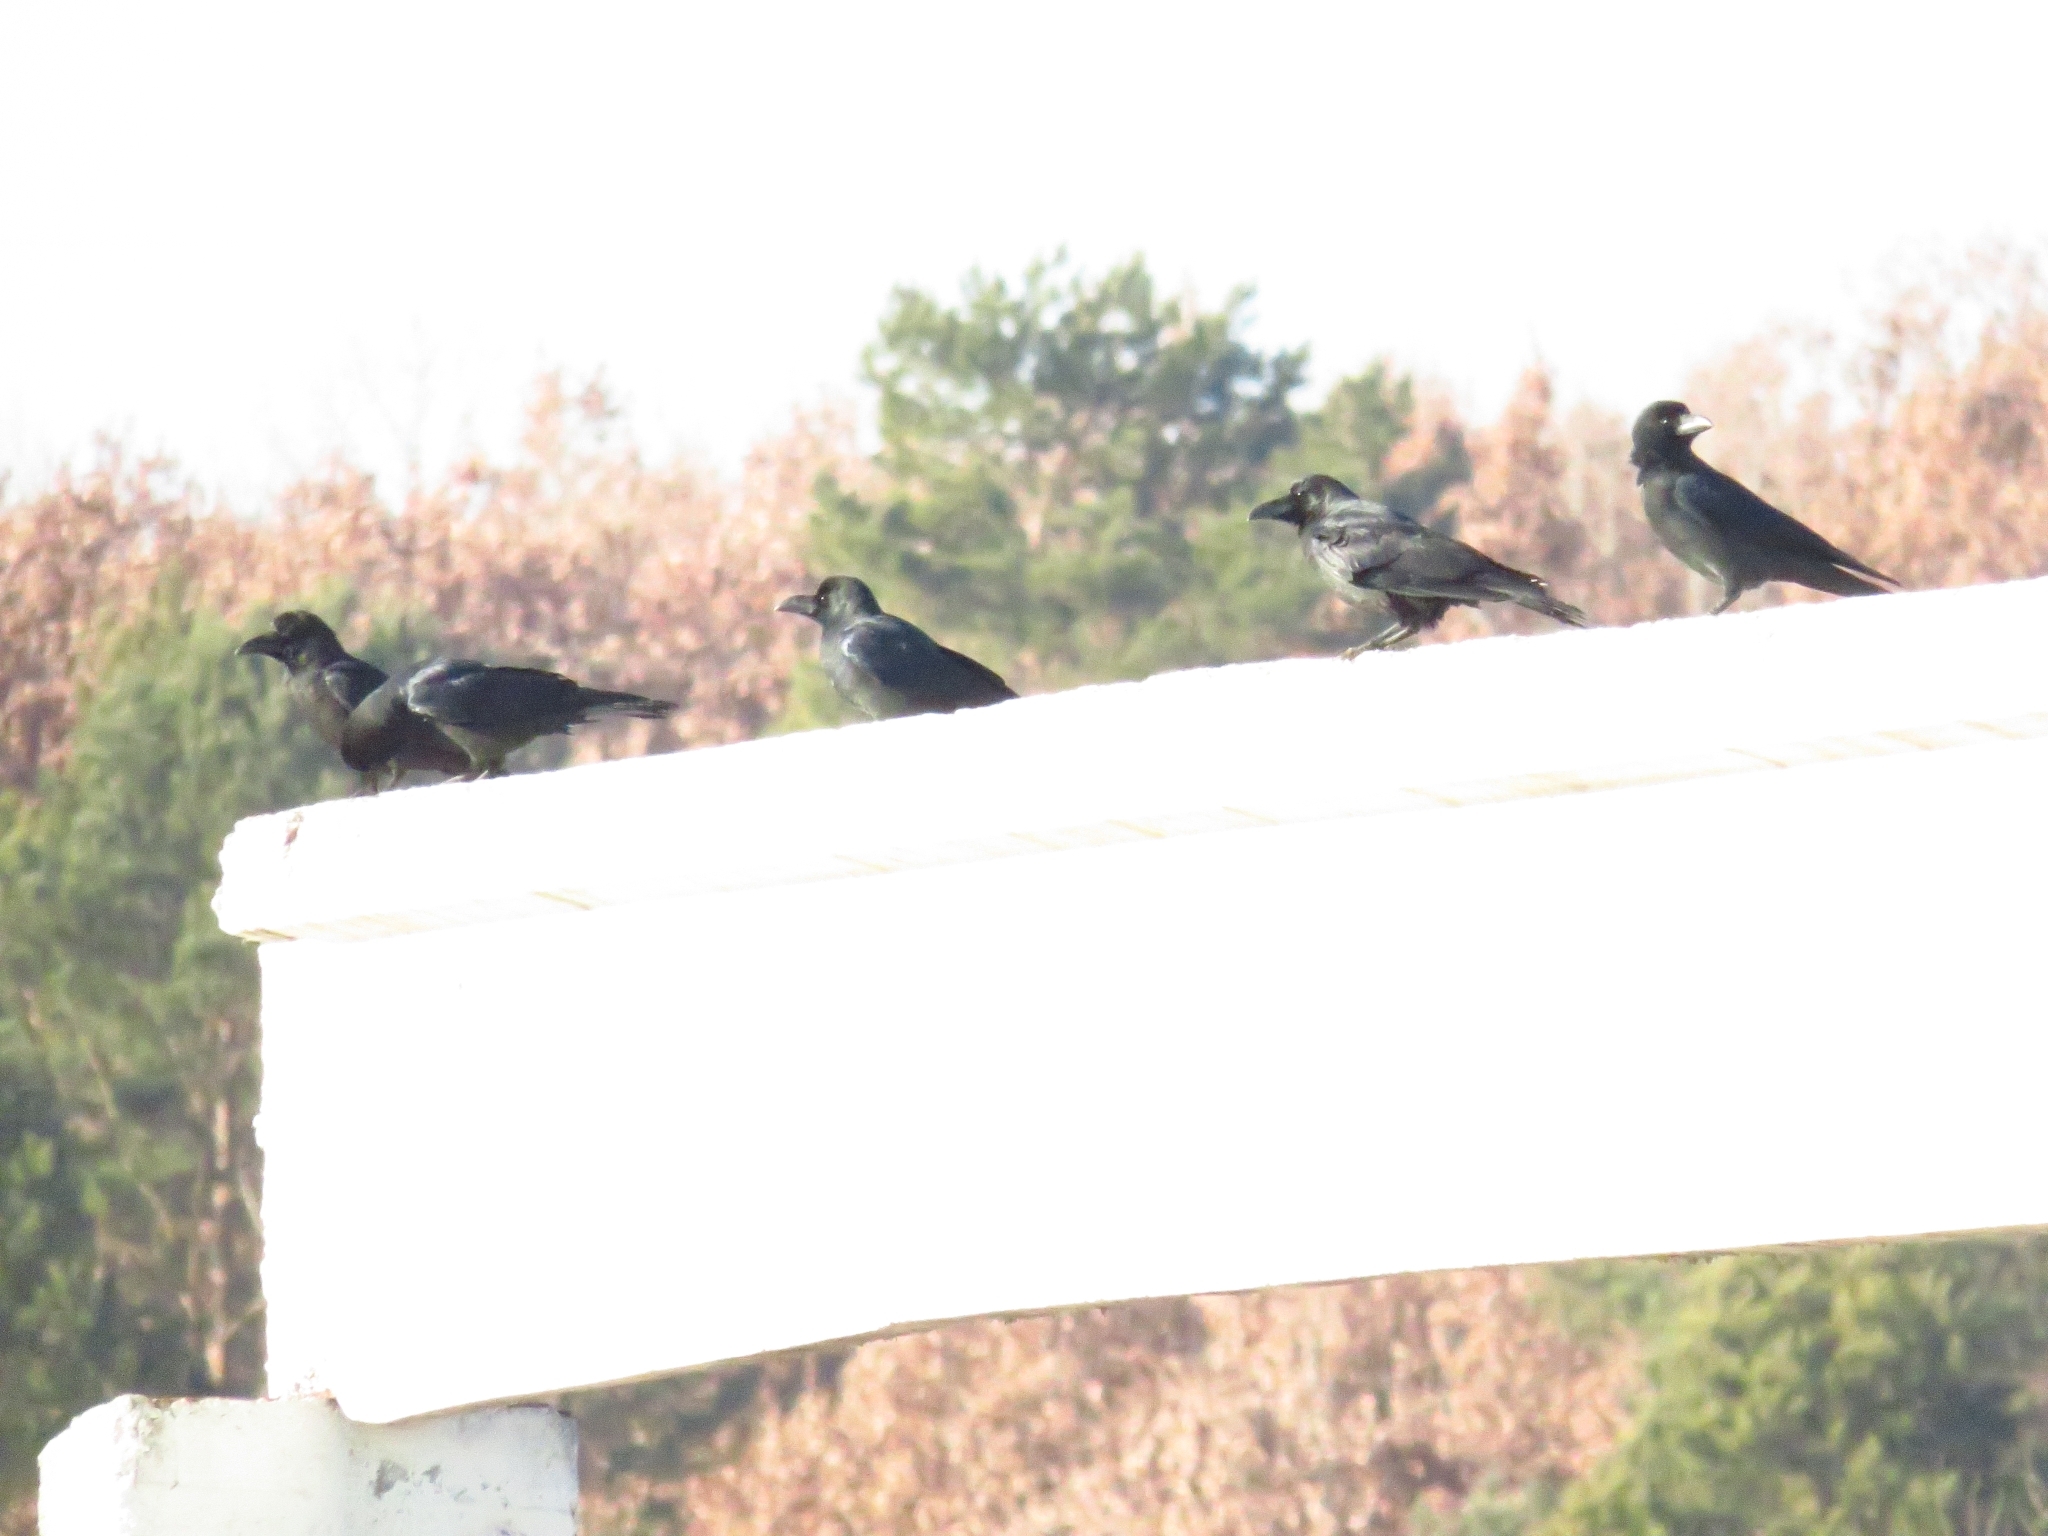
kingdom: Animalia
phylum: Chordata
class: Aves
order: Passeriformes
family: Corvidae
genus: Corvus
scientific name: Corvus macrorhynchos
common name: Large-billed crow
